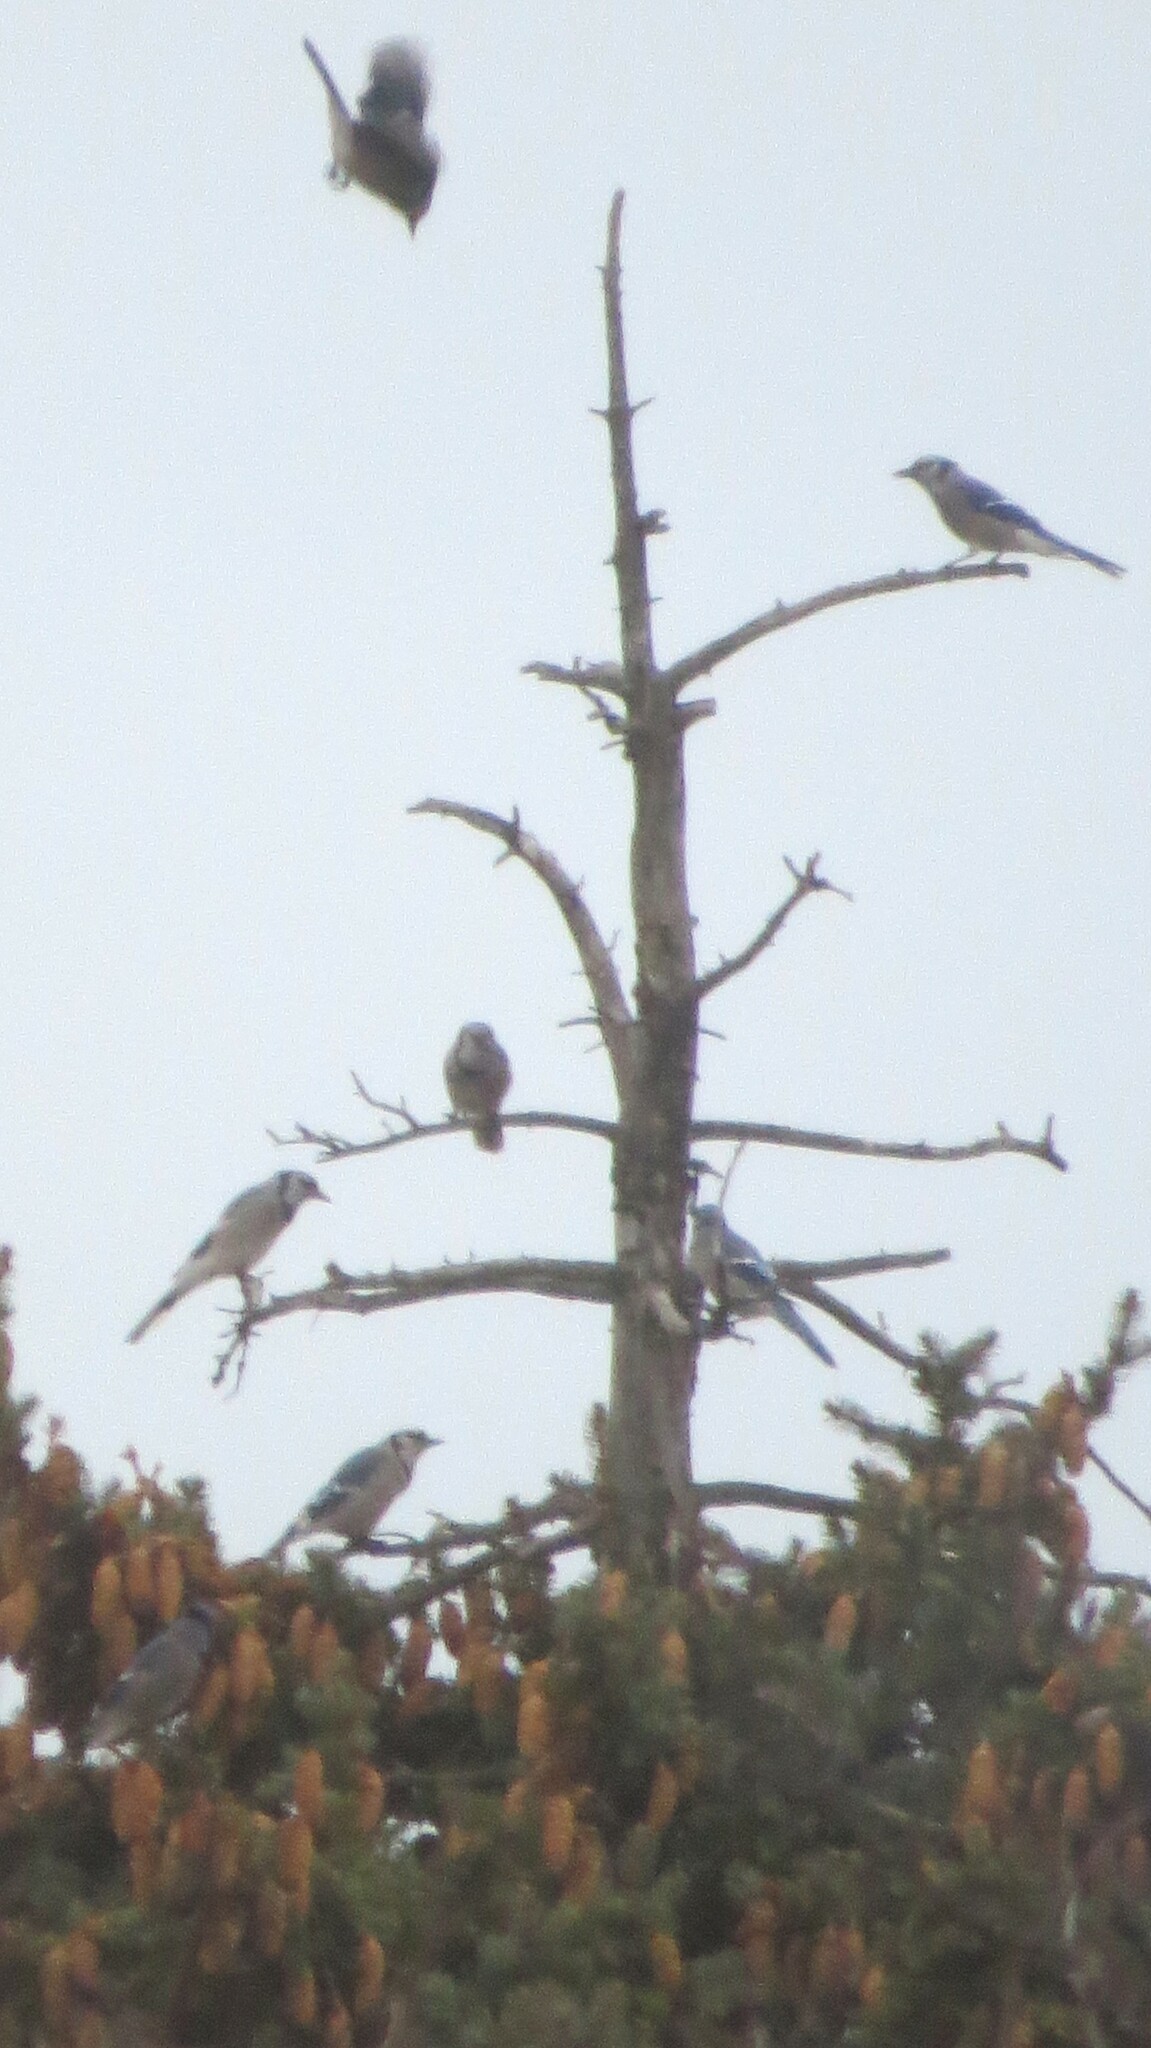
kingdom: Animalia
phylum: Chordata
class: Aves
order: Passeriformes
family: Corvidae
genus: Cyanocitta
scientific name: Cyanocitta cristata
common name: Blue jay
